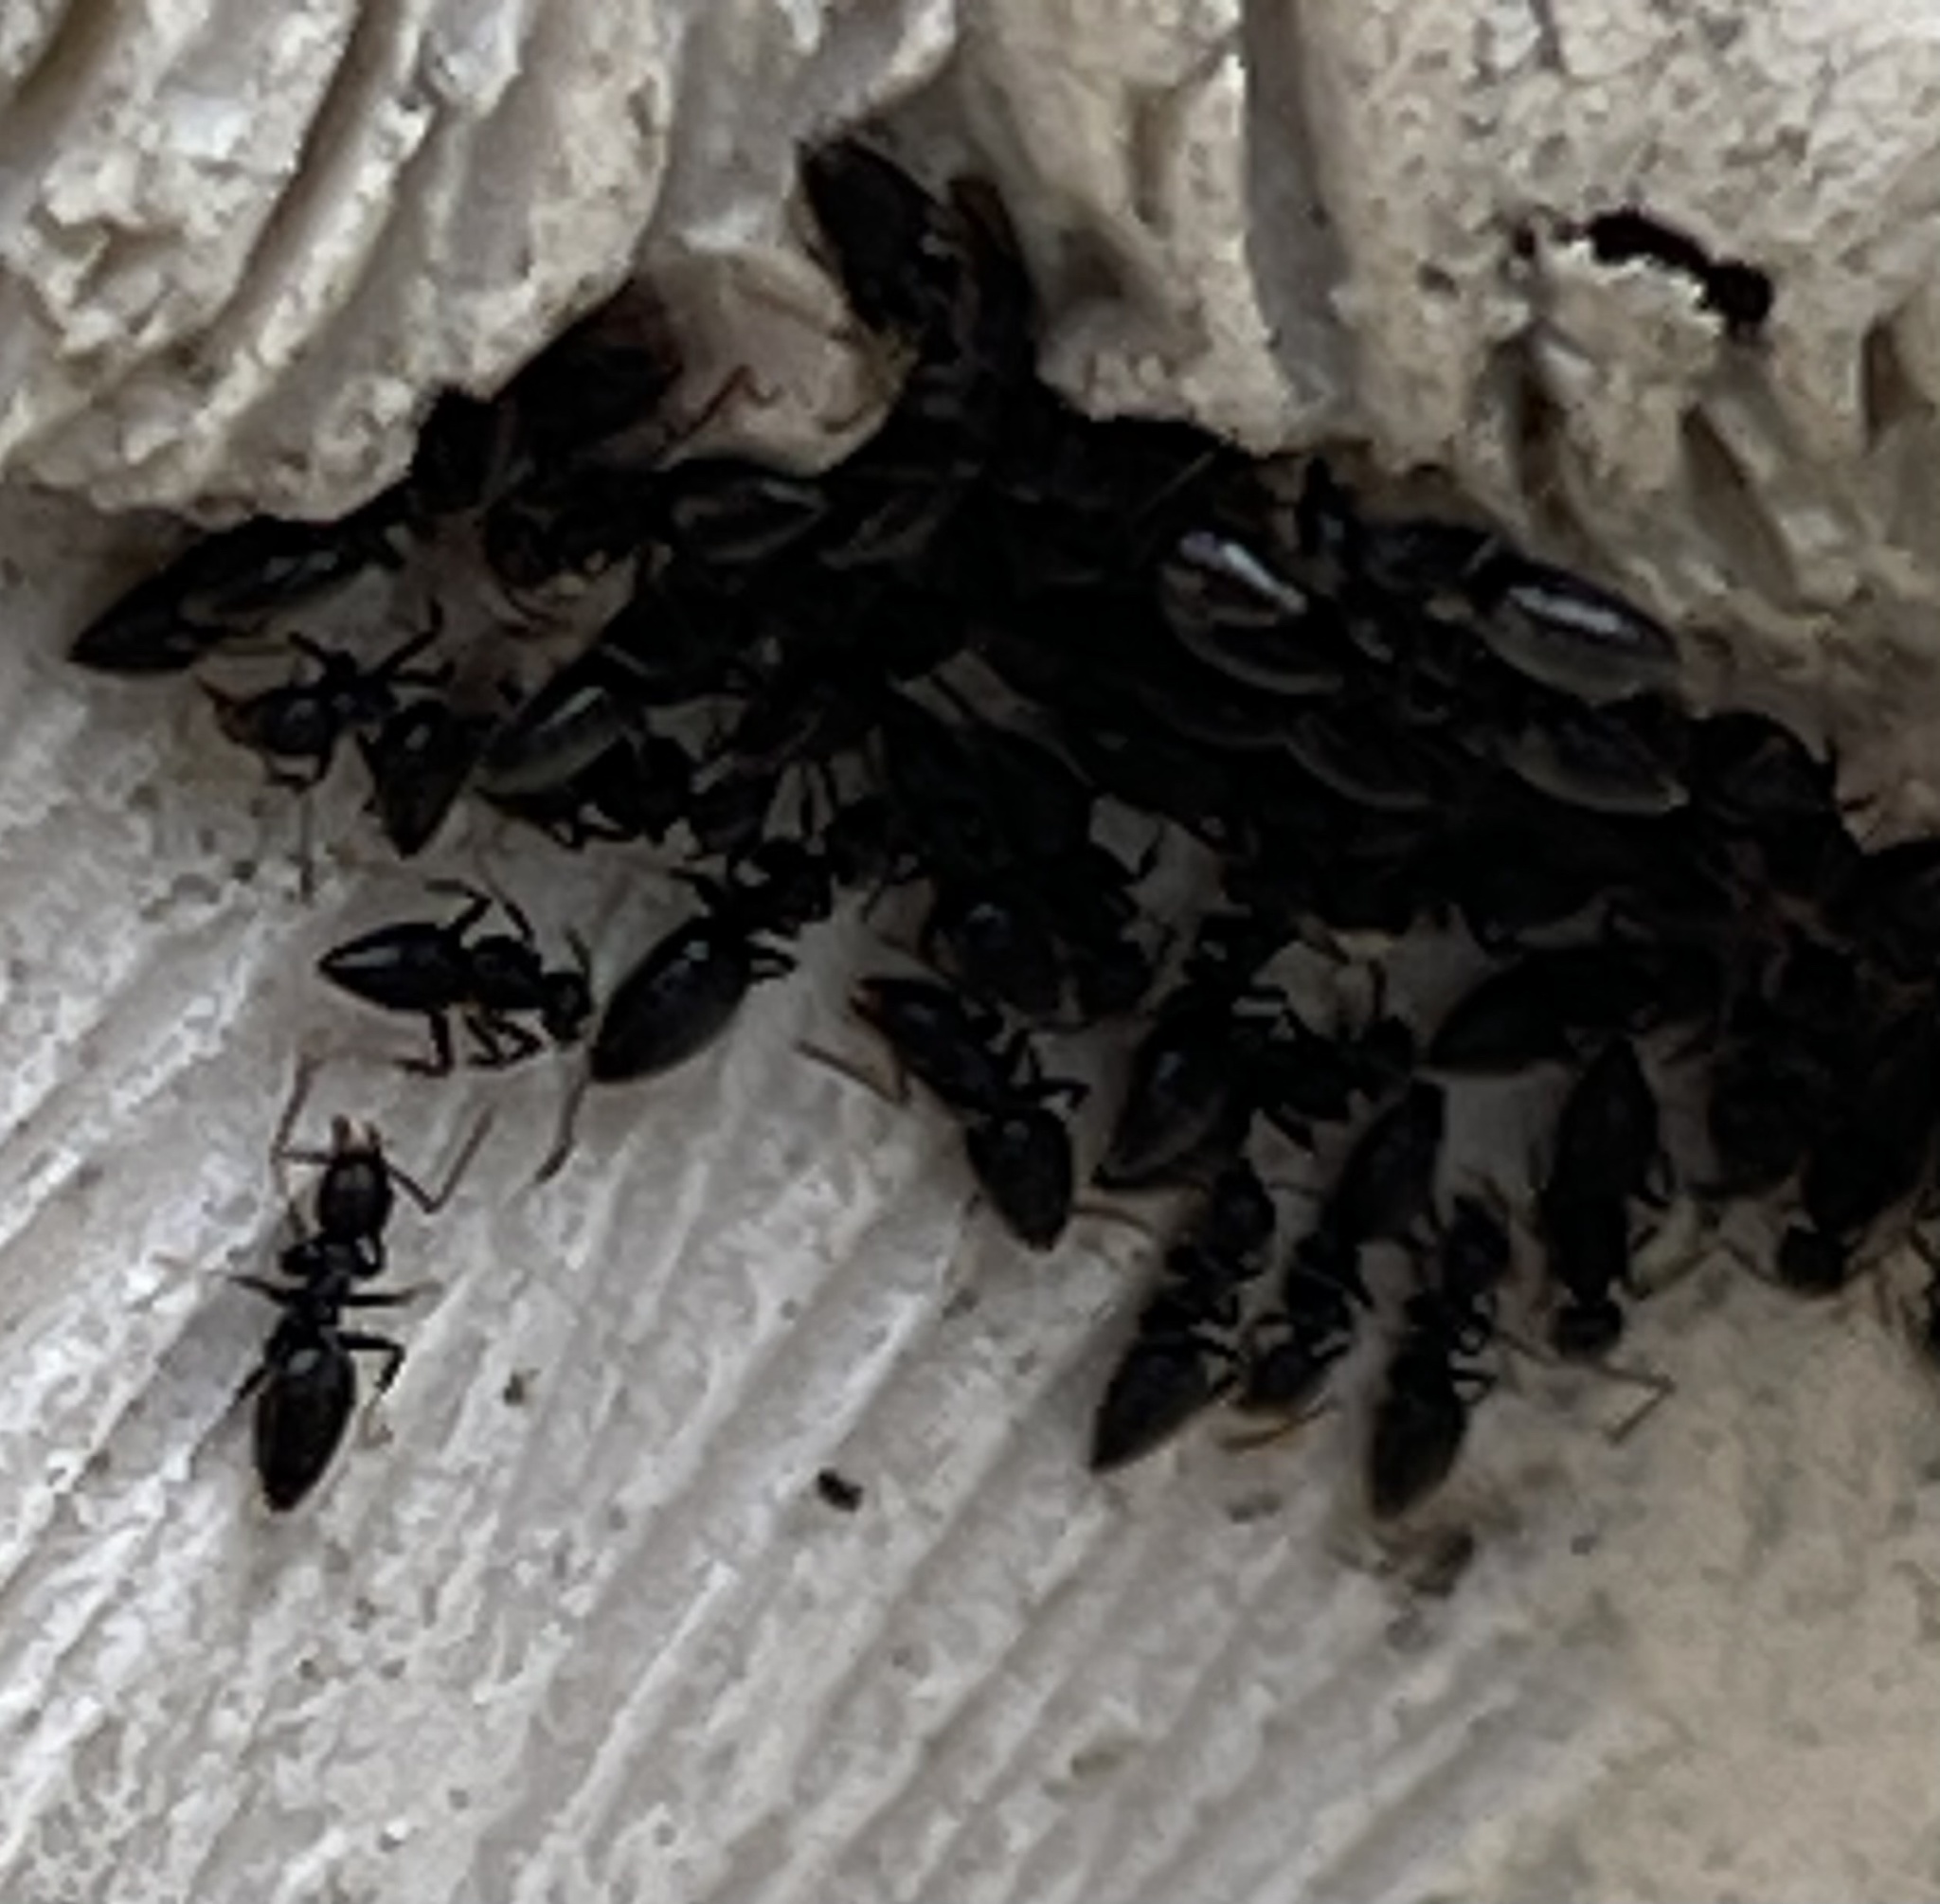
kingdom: Animalia
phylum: Arthropoda
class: Insecta
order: Hymenoptera
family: Formicidae
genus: Technomyrmex
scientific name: Technomyrmex difficilis
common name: Ant
